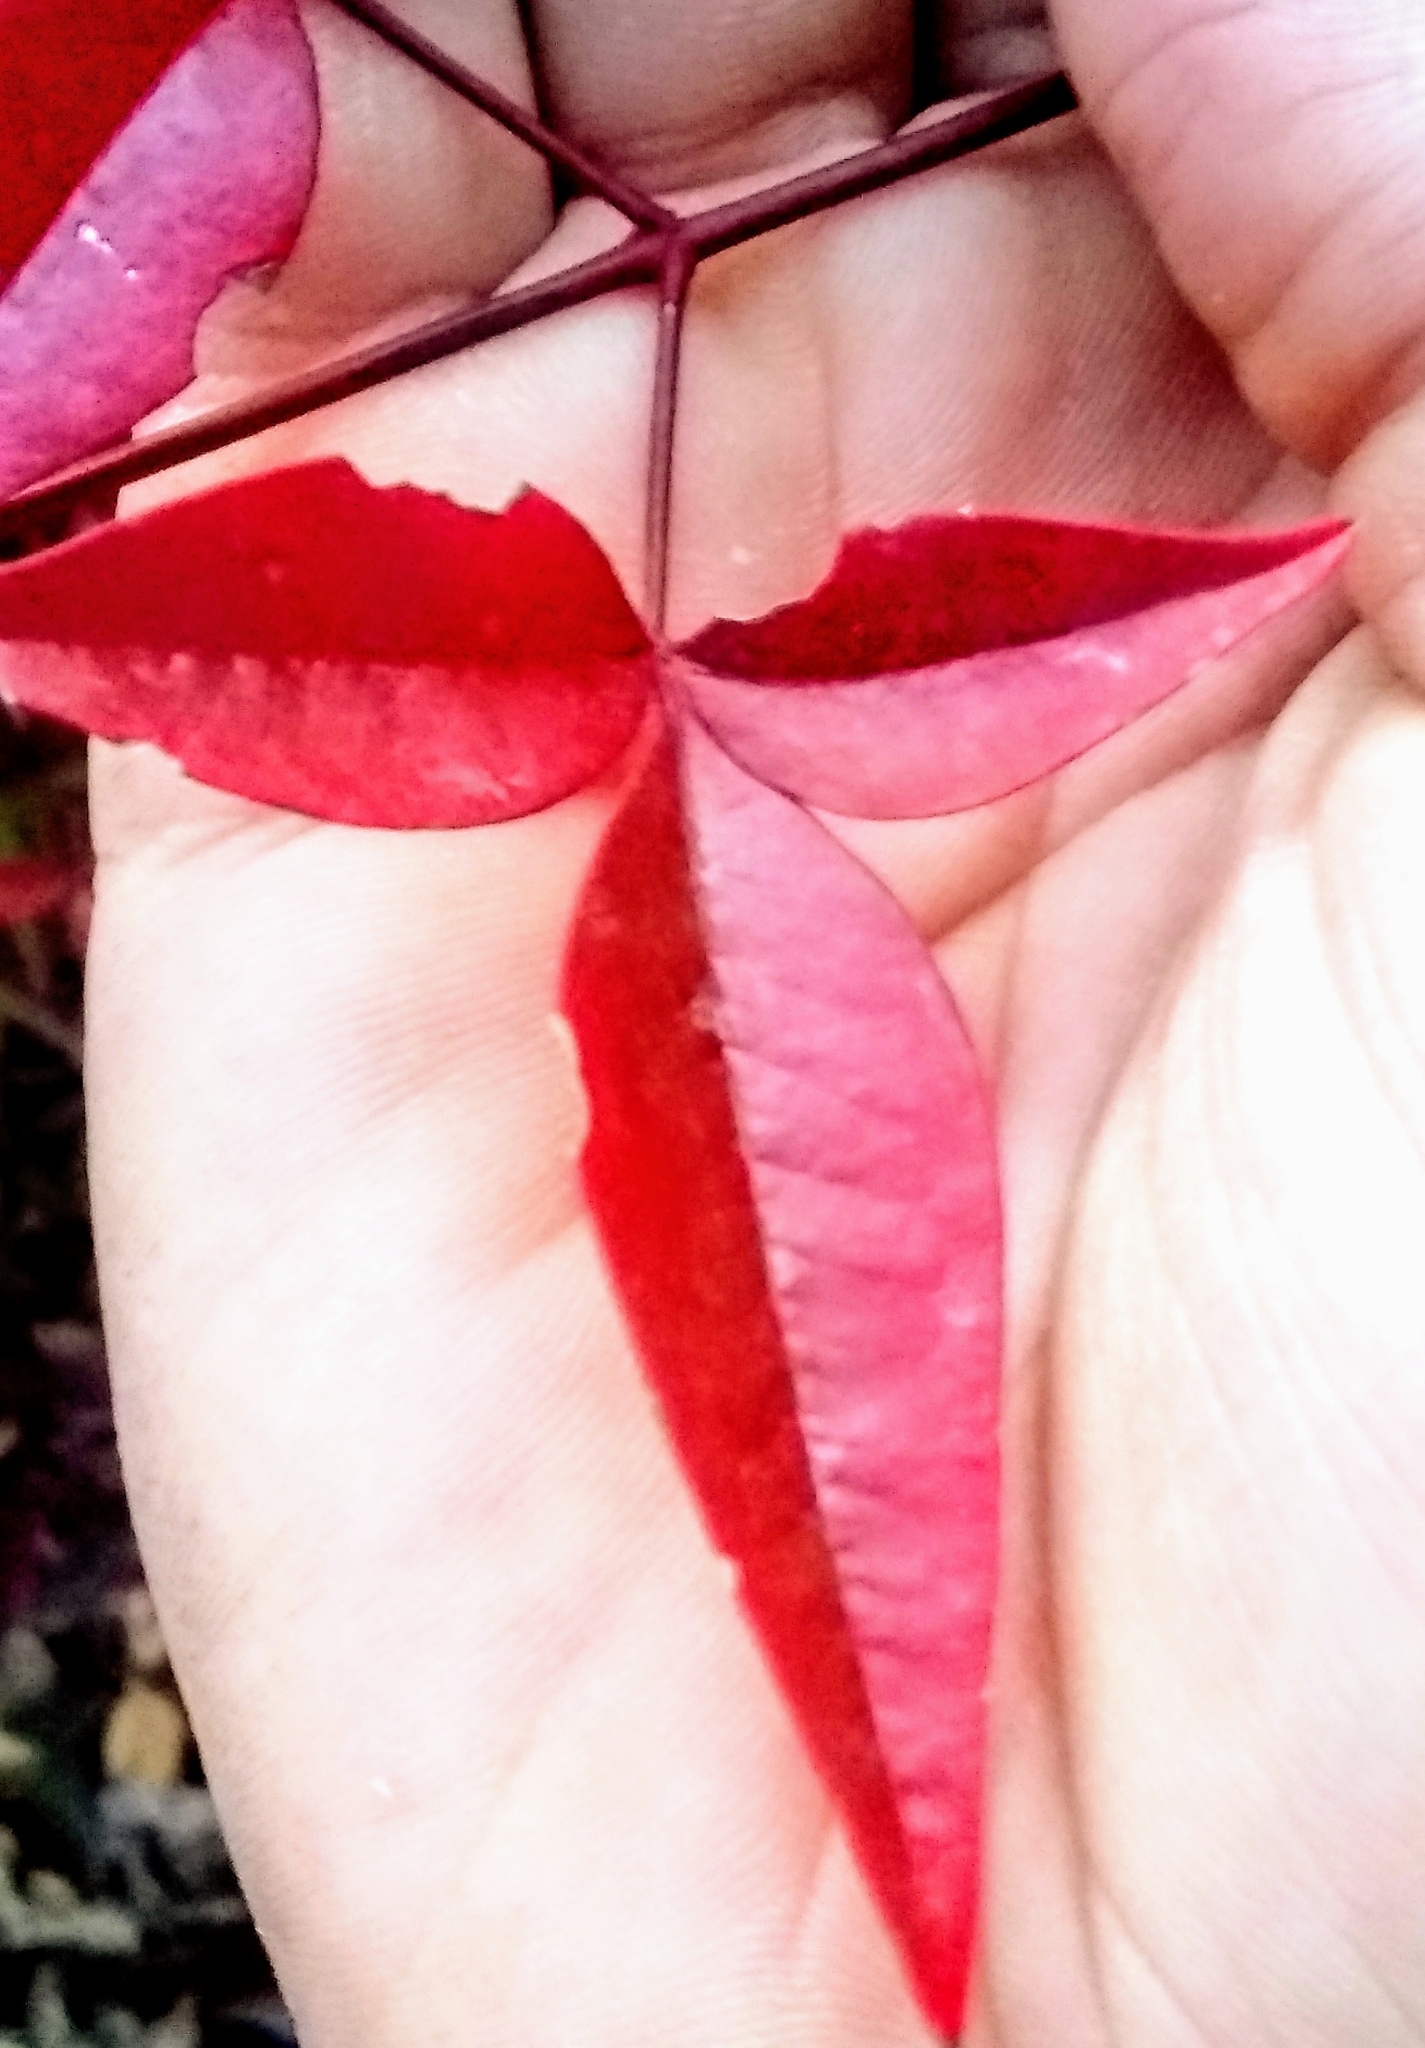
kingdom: Plantae
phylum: Tracheophyta
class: Magnoliopsida
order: Ranunculales
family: Berberidaceae
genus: Nandina
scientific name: Nandina domestica
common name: Sacred bamboo
